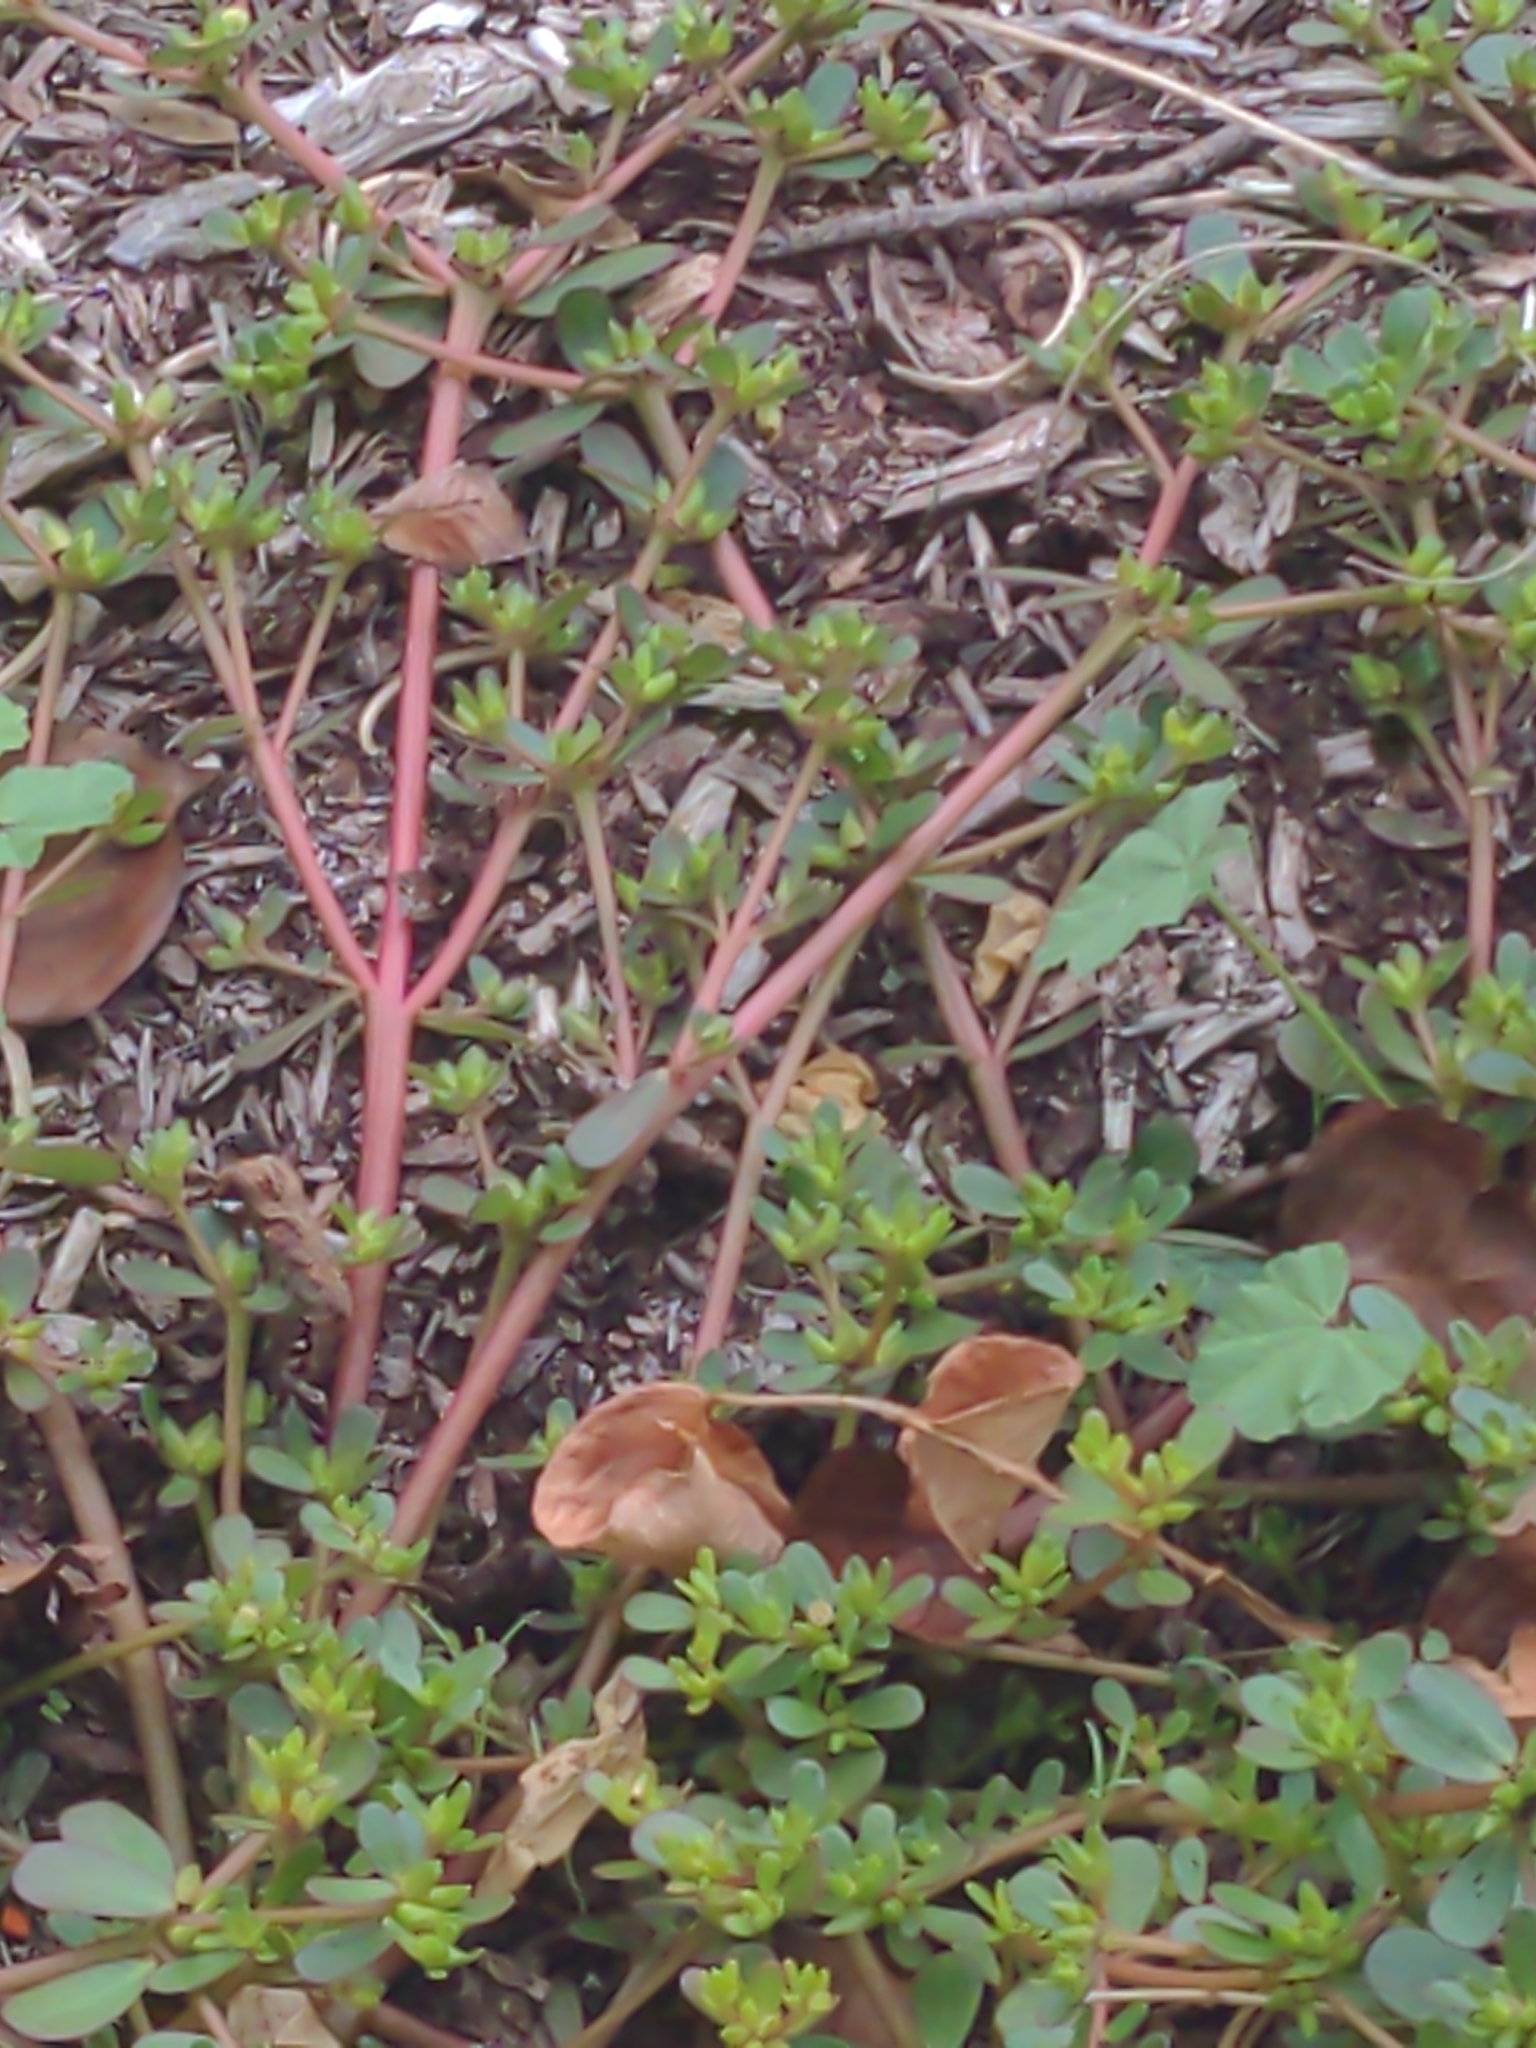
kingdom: Plantae
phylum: Tracheophyta
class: Magnoliopsida
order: Caryophyllales
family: Portulacaceae
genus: Portulaca
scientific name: Portulaca oleracea
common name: Common purslane
